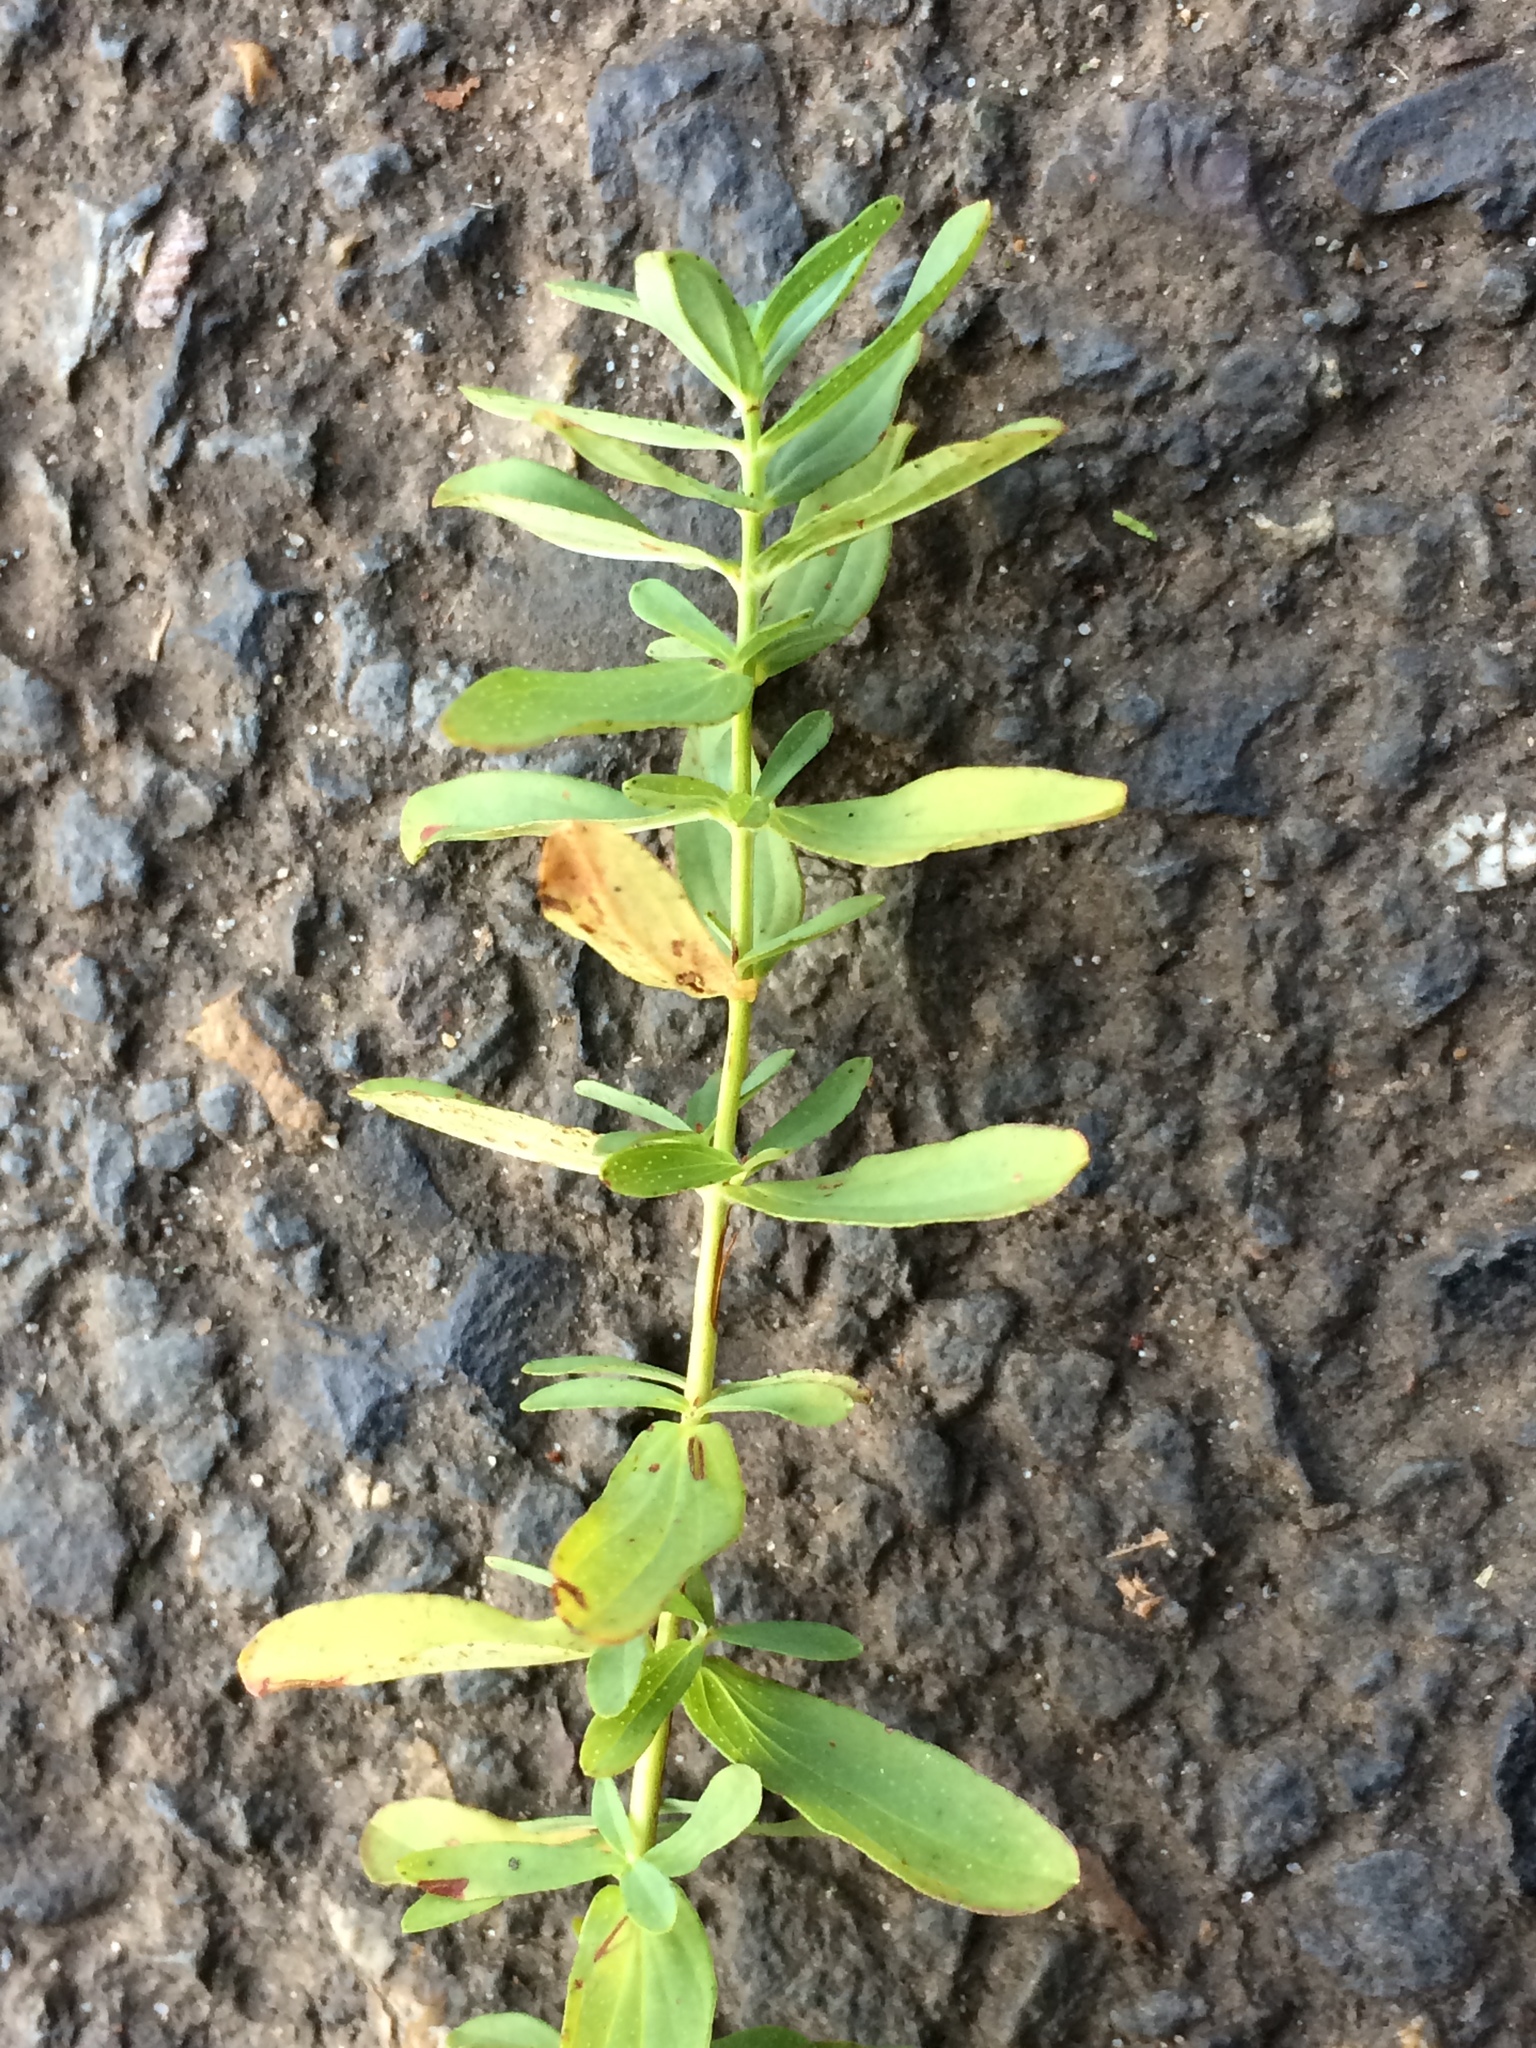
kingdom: Plantae
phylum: Tracheophyta
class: Magnoliopsida
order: Malpighiales
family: Hypericaceae
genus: Hypericum
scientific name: Hypericum perforatum
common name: Common st. johnswort
